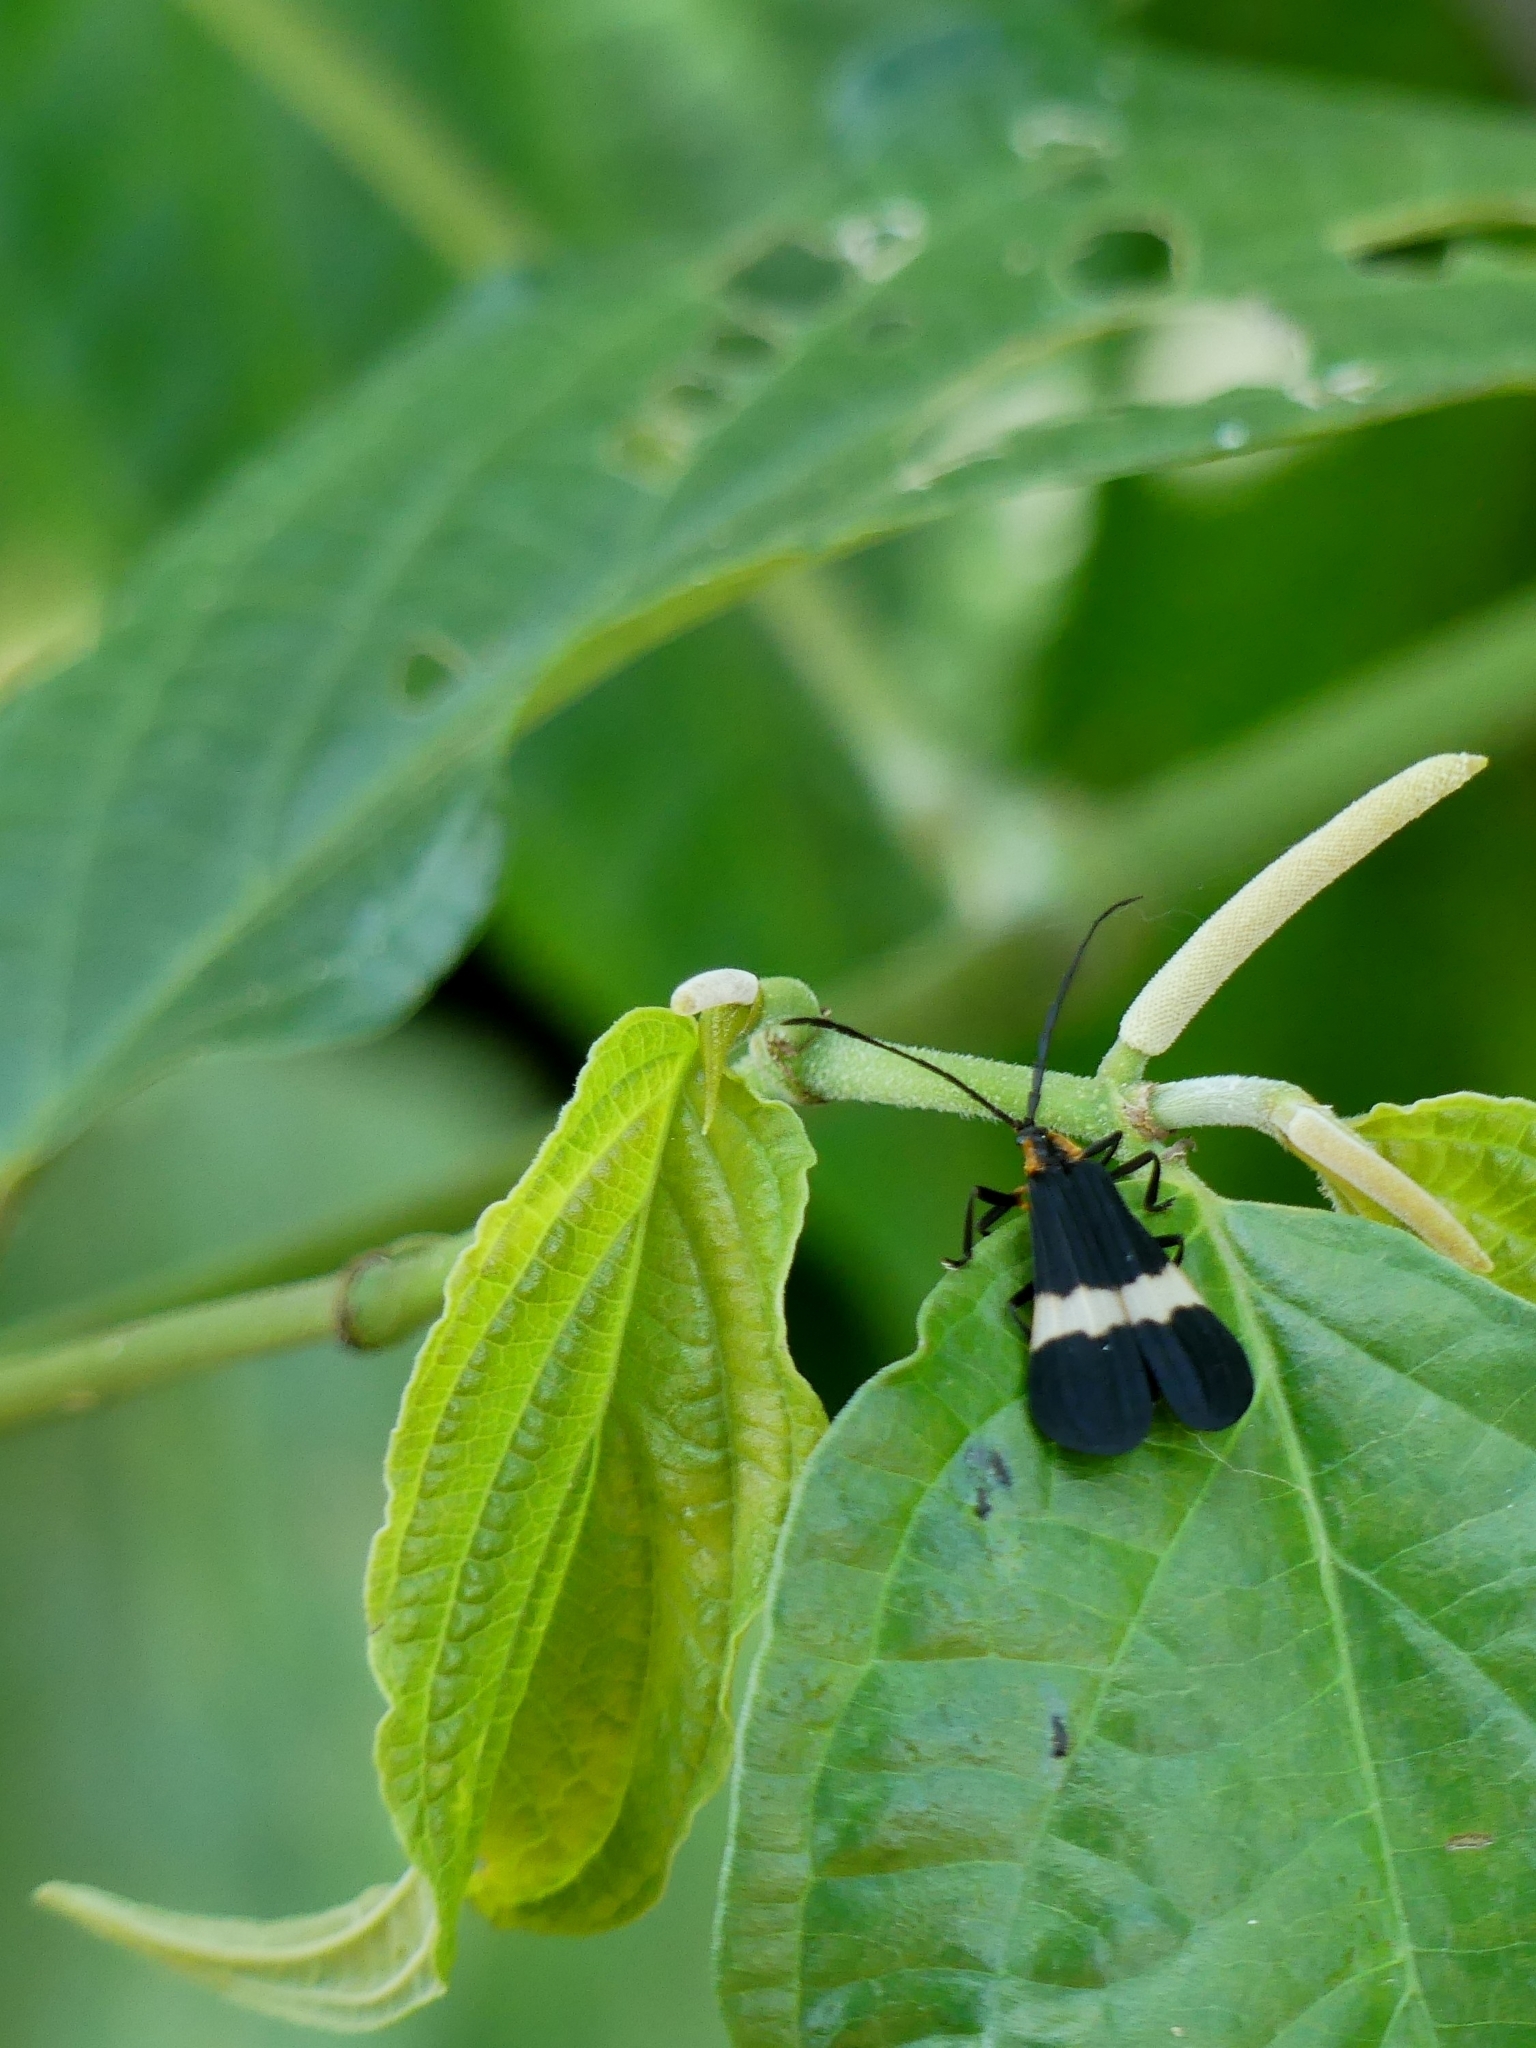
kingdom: Animalia
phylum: Arthropoda
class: Insecta
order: Coleoptera
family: Lycidae
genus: Calopteron
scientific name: Calopteron tropicum
